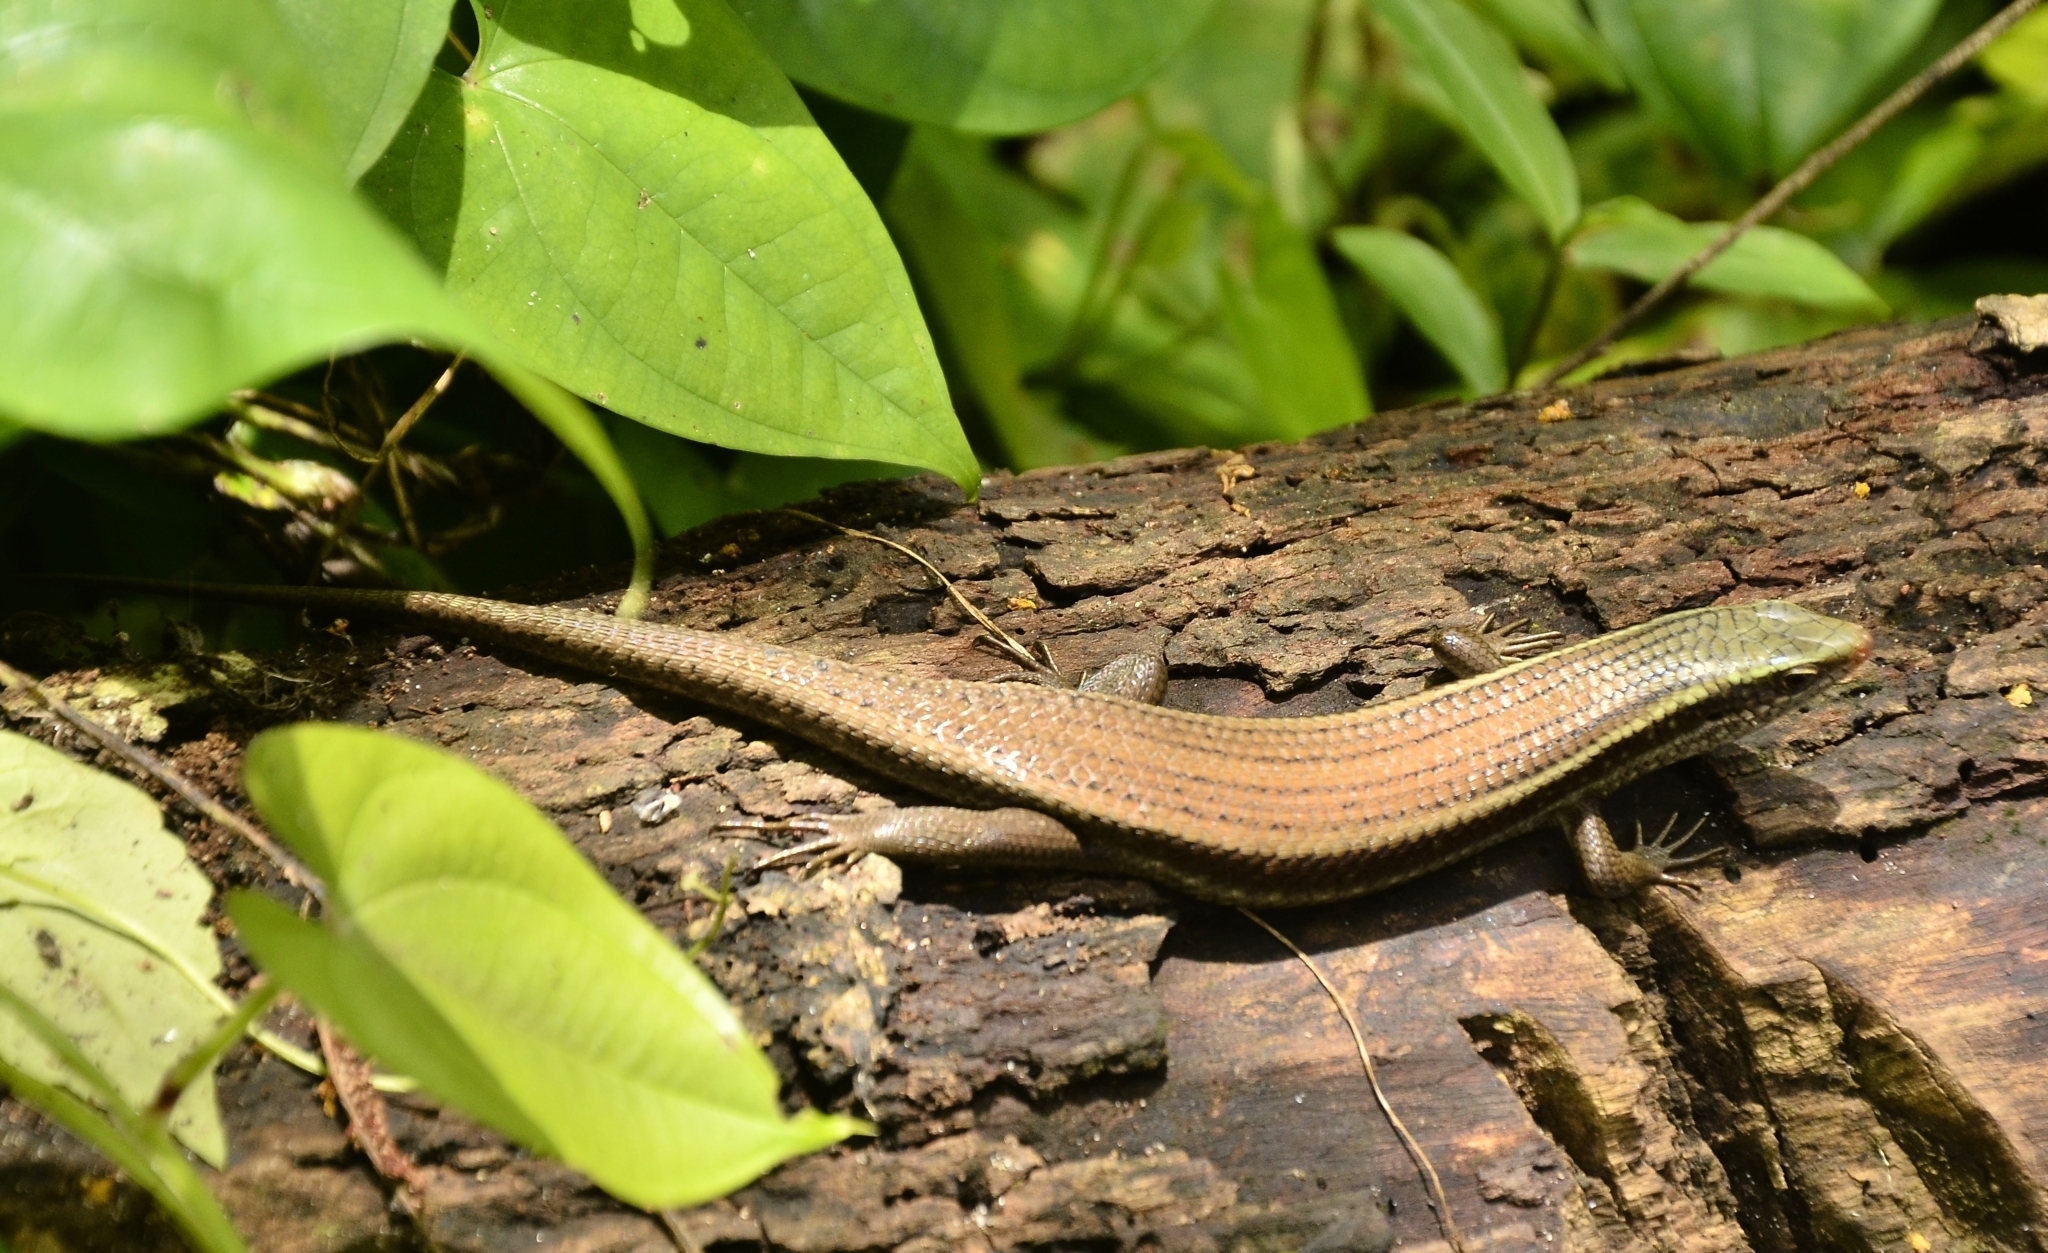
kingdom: Animalia
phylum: Chordata
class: Squamata
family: Scincidae
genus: Eutropis
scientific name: Eutropis carinata
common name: Keeled indian mabuya
